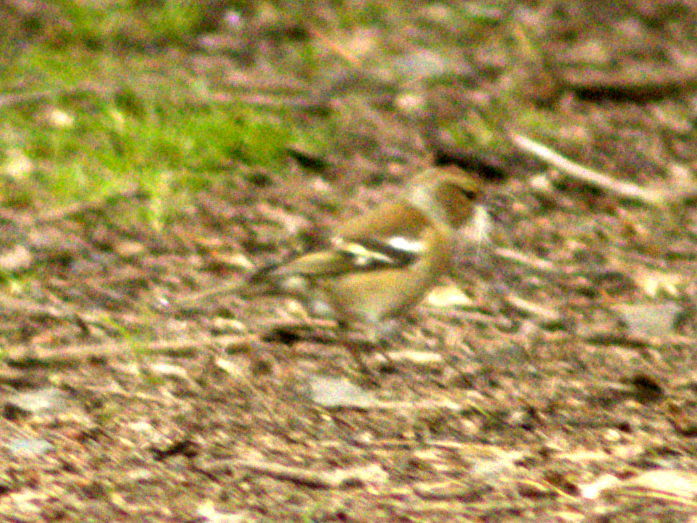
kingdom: Animalia
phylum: Chordata
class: Aves
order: Passeriformes
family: Fringillidae
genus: Fringilla
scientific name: Fringilla coelebs
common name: Common chaffinch
